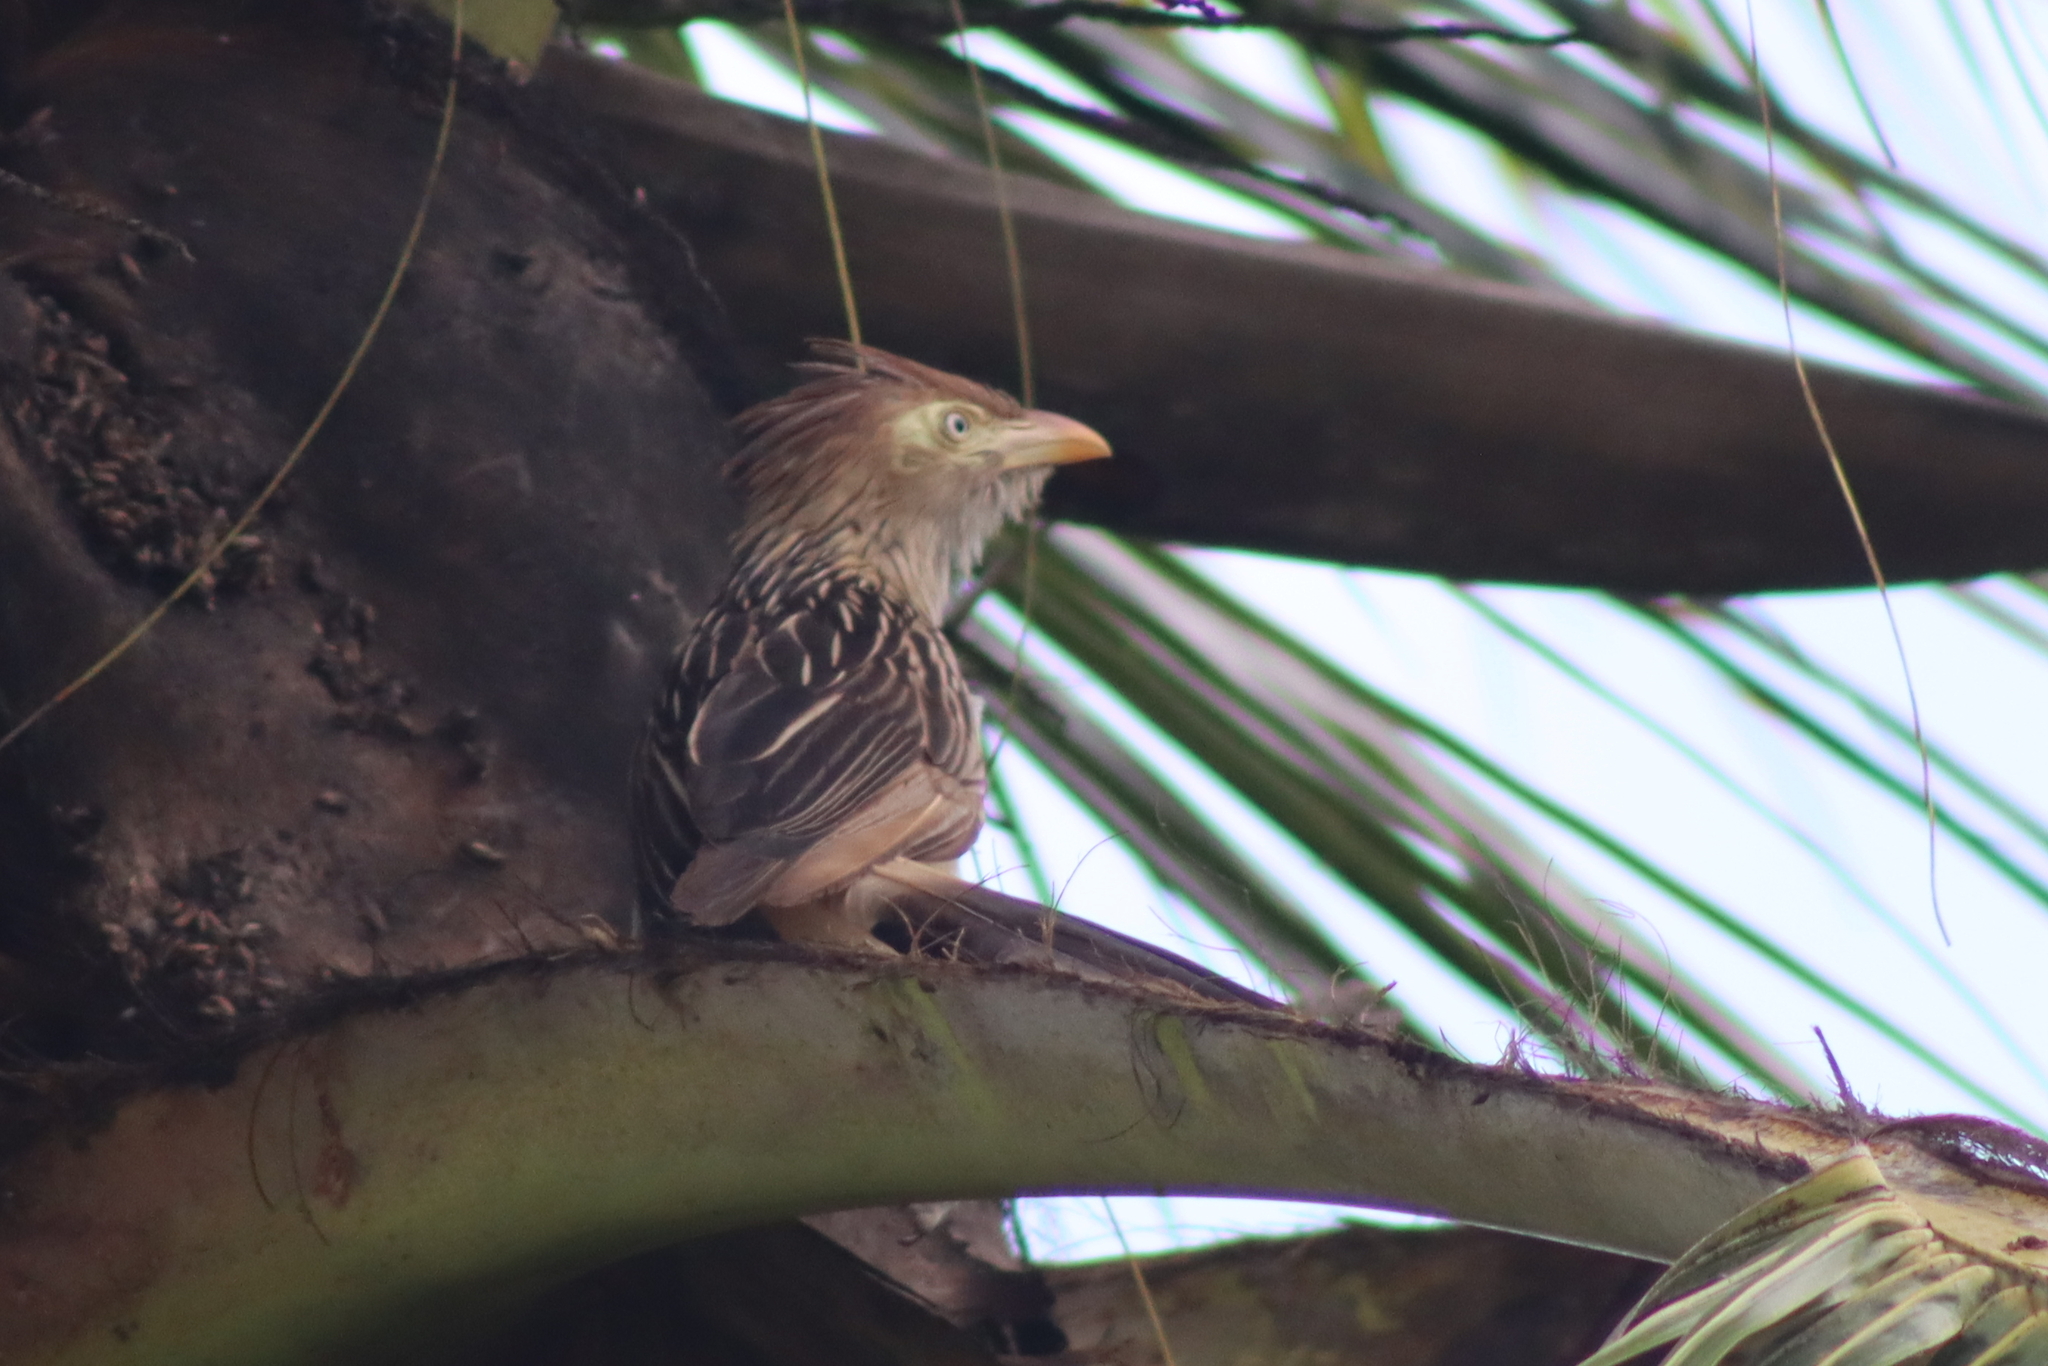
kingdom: Animalia
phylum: Chordata
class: Aves
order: Cuculiformes
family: Cuculidae
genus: Guira
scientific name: Guira guira
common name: Guira cuckoo
